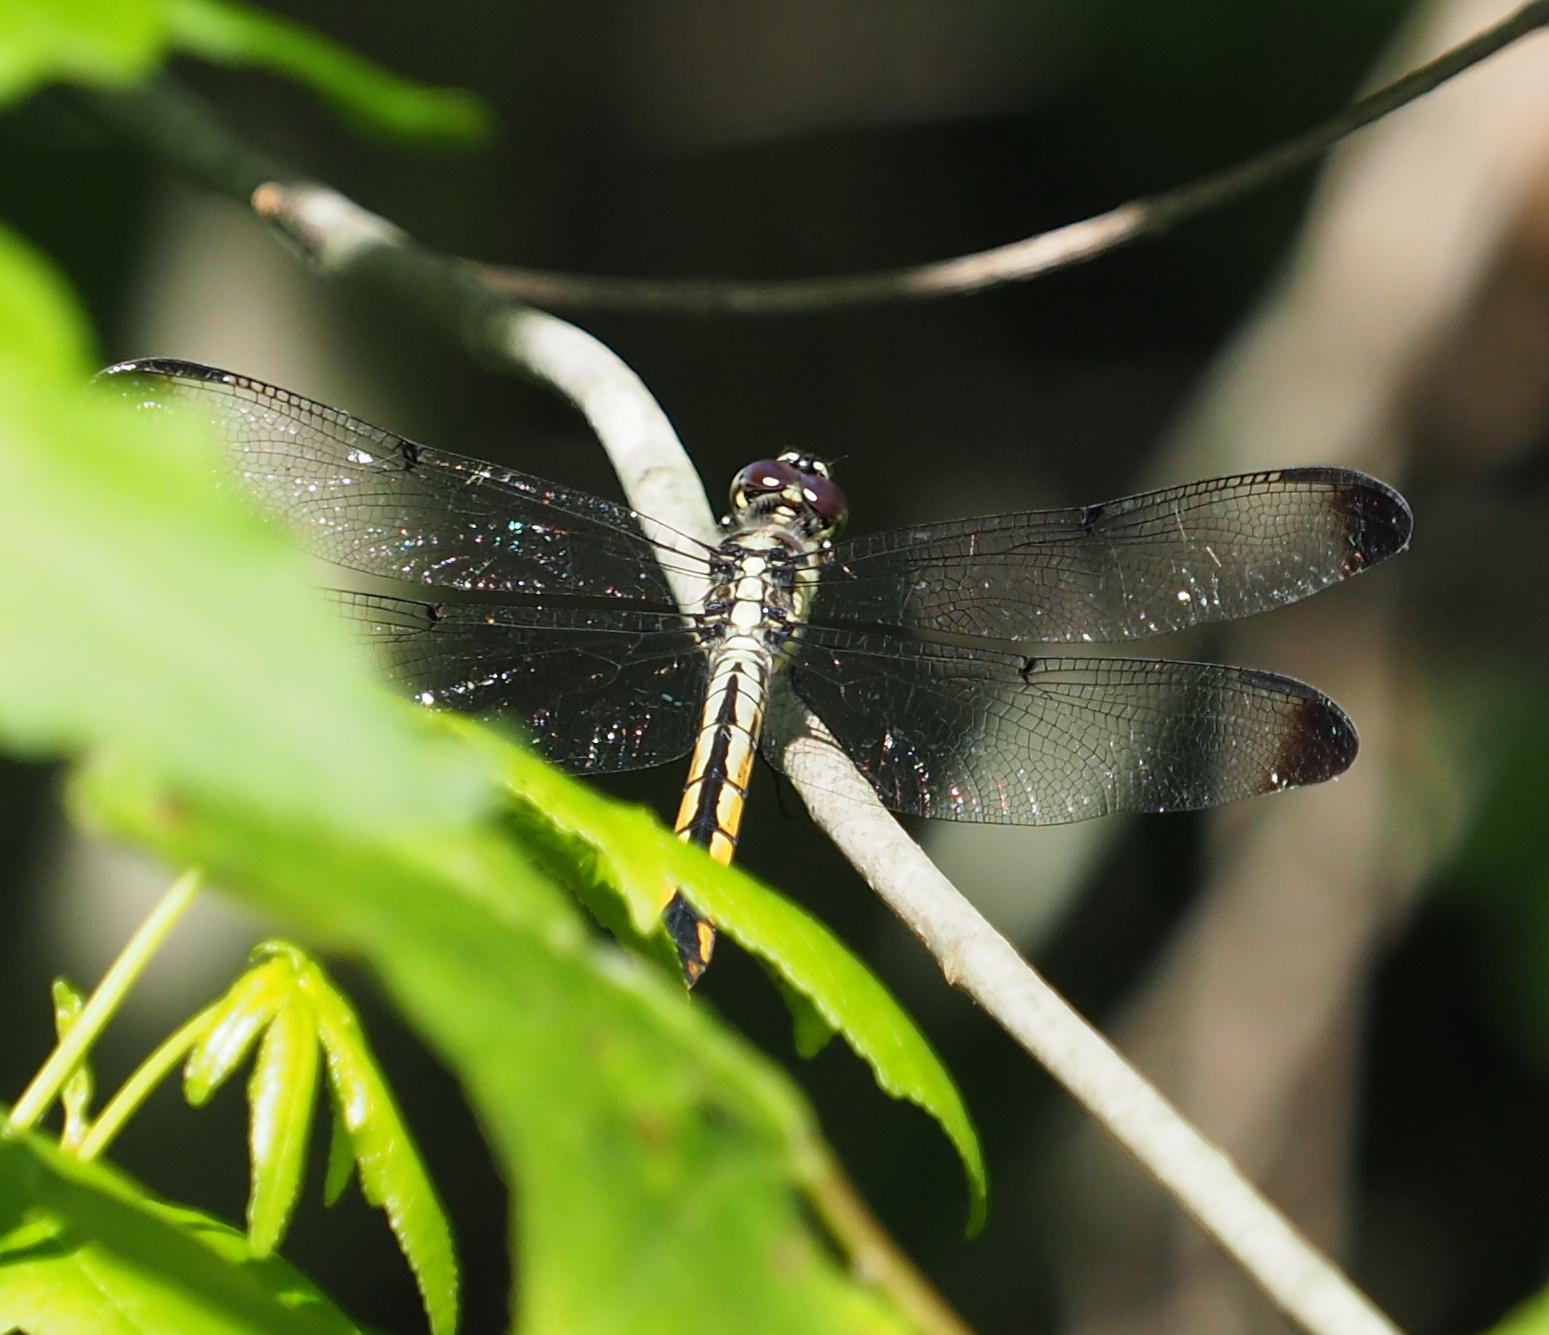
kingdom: Animalia
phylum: Arthropoda
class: Insecta
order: Odonata
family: Libellulidae
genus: Libellula
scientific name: Libellula vibrans
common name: Great blue skimmer
